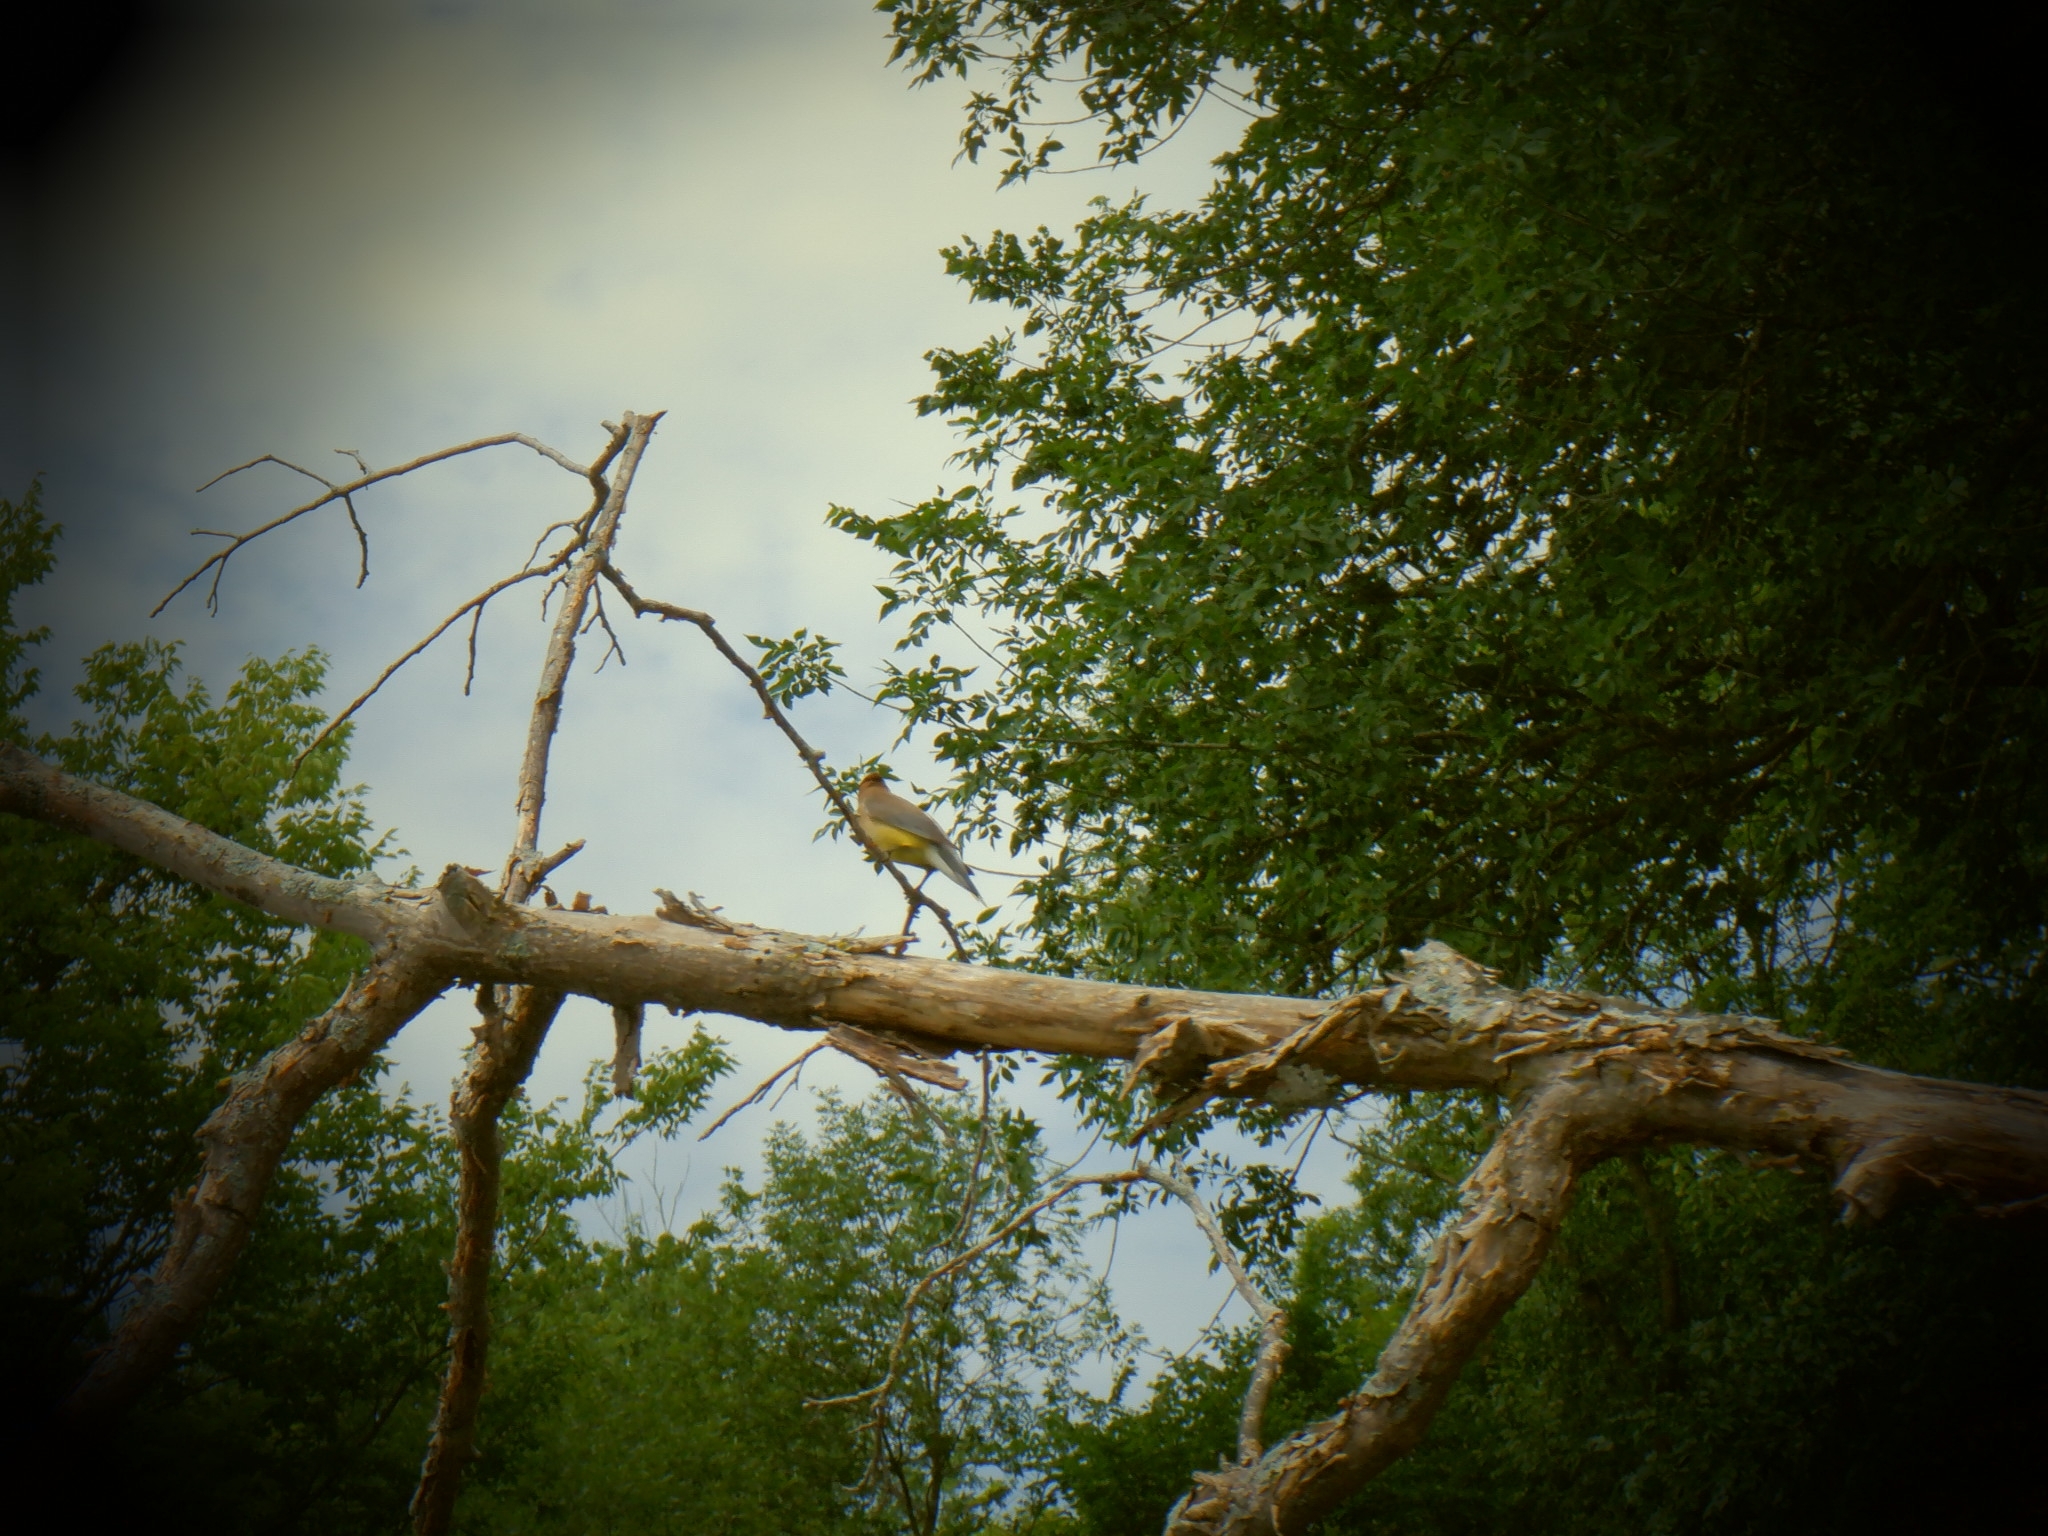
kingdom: Animalia
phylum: Chordata
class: Aves
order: Passeriformes
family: Bombycillidae
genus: Bombycilla
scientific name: Bombycilla cedrorum
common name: Cedar waxwing
